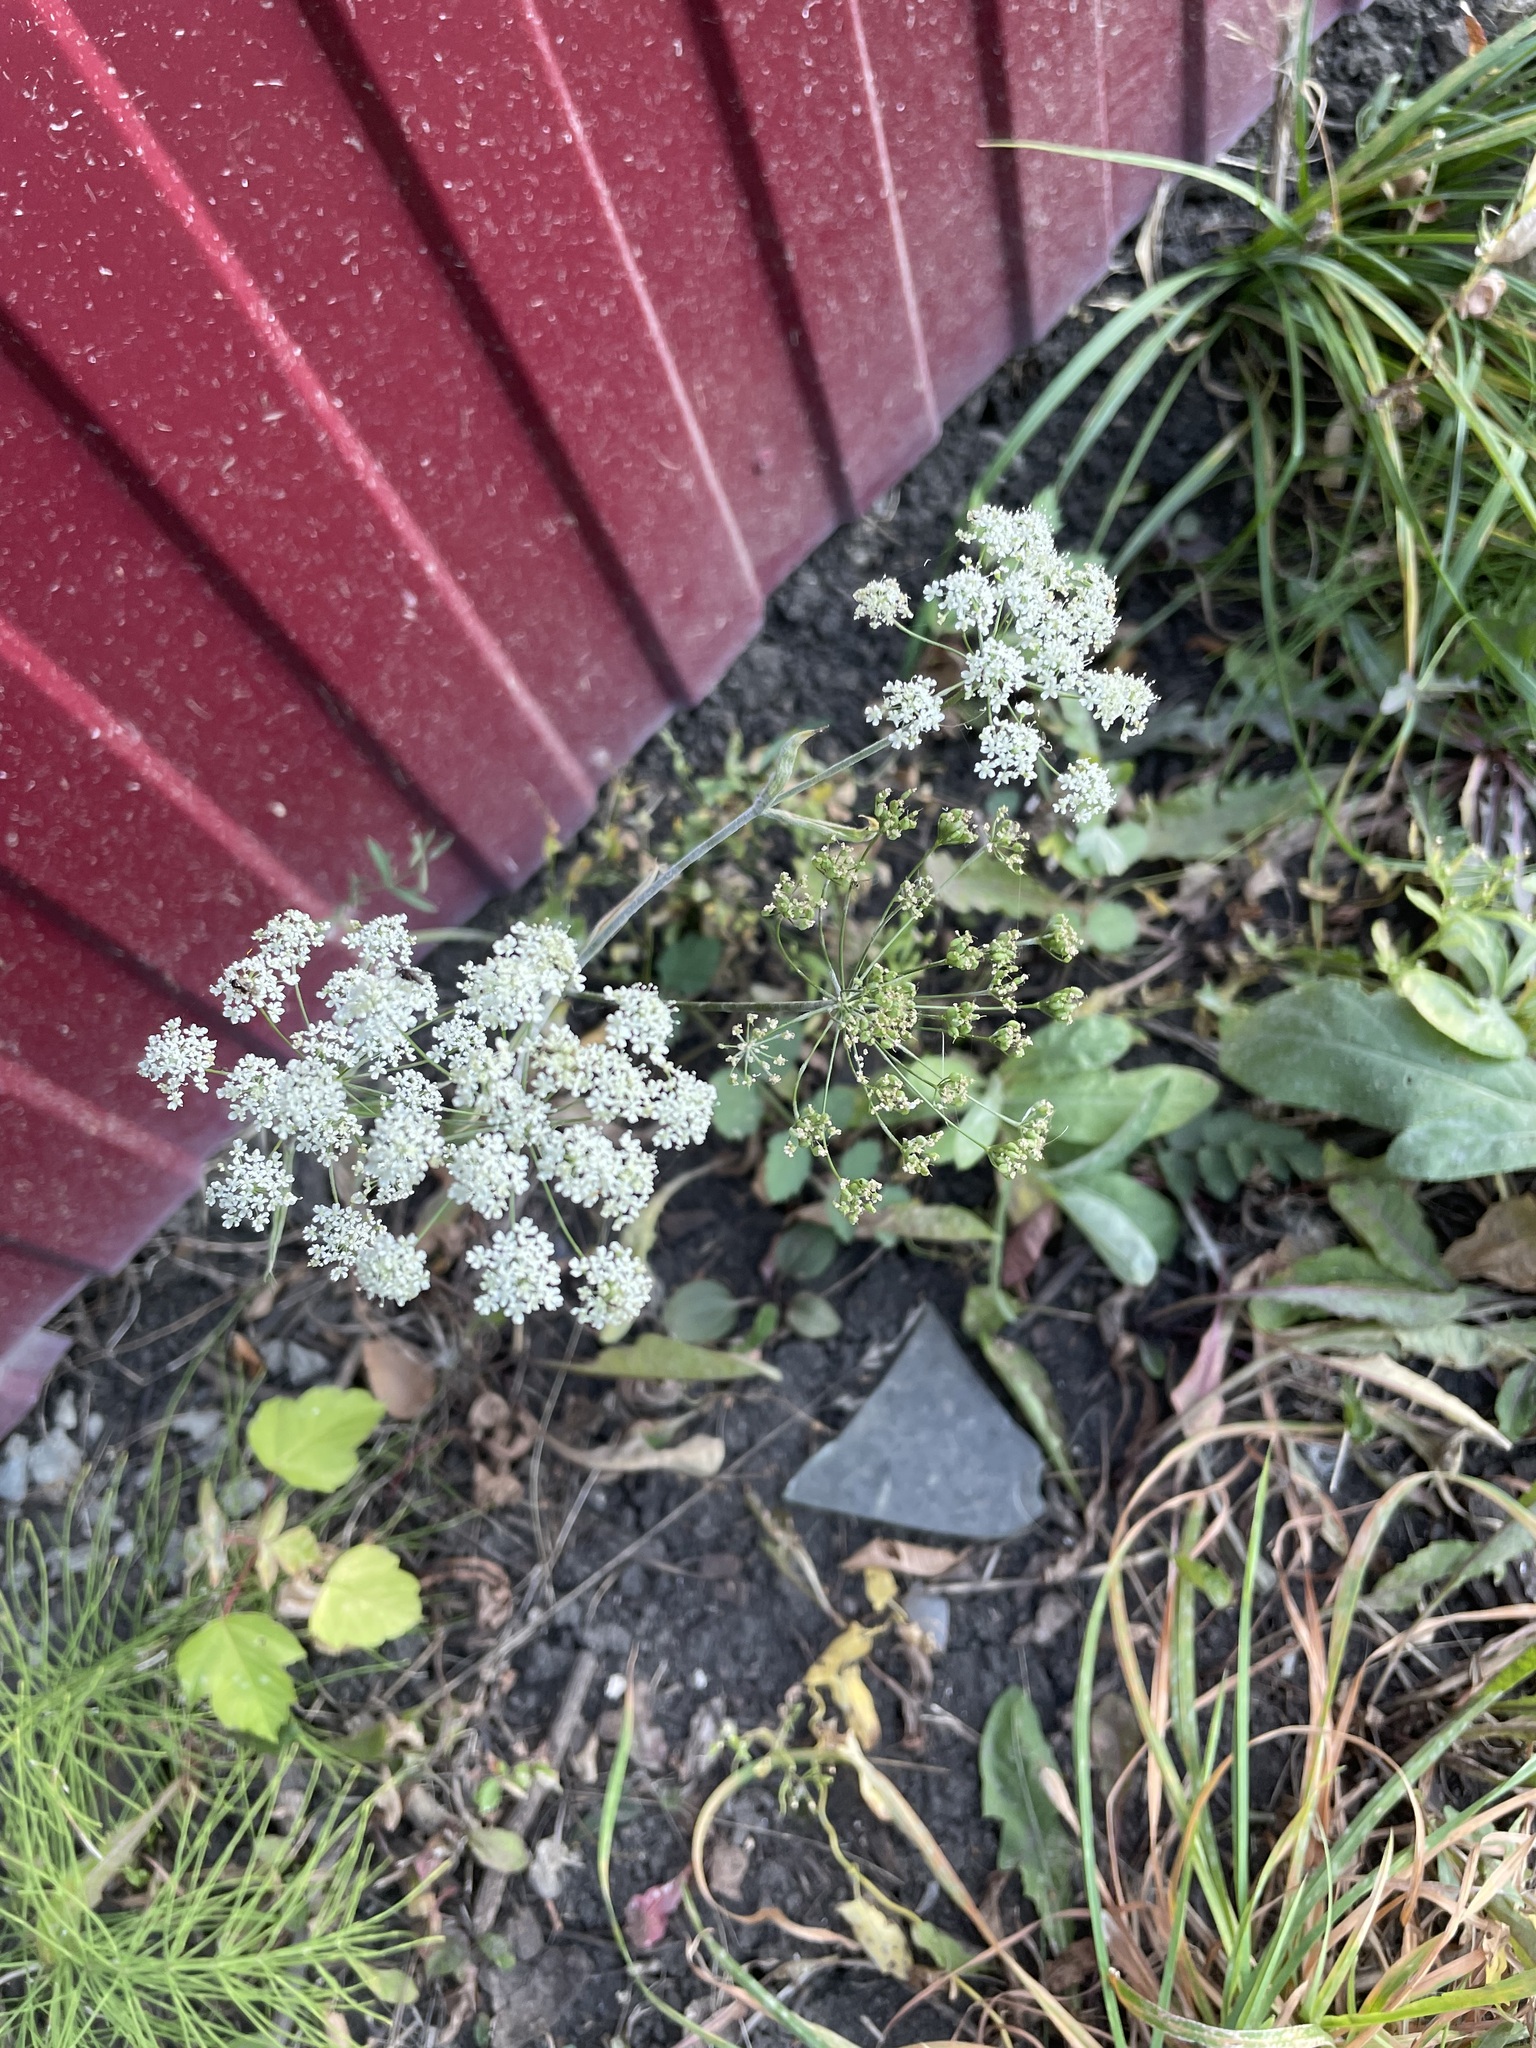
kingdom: Plantae
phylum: Tracheophyta
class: Magnoliopsida
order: Apiales
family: Apiaceae
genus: Pimpinella
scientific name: Pimpinella saxifraga
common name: Burnet-saxifrage
